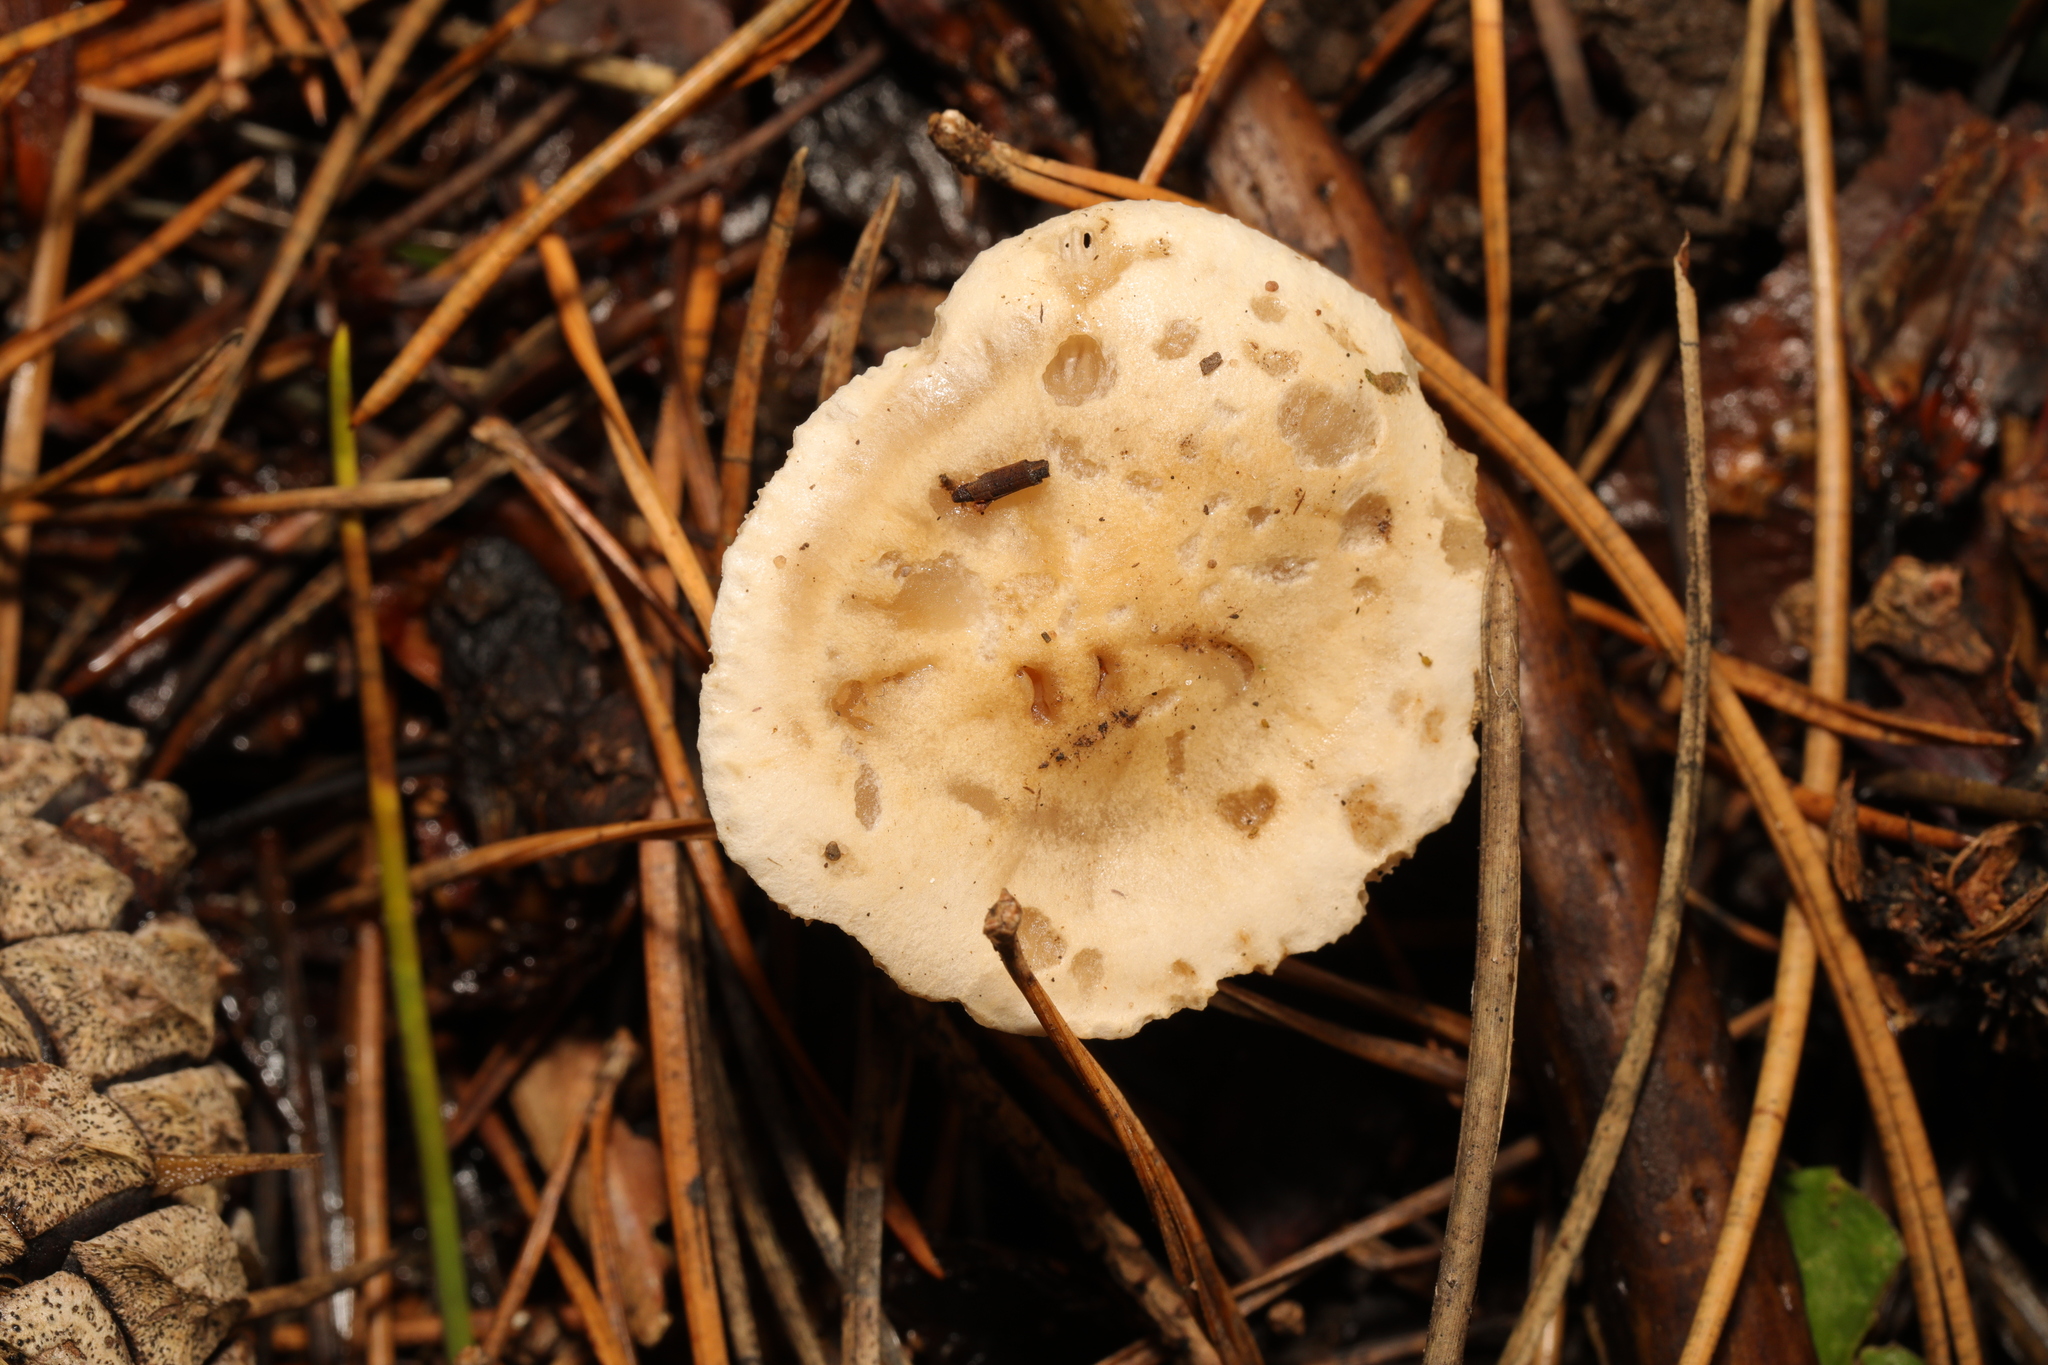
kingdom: Fungi
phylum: Basidiomycota
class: Agaricomycetes
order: Agaricales
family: Hymenogastraceae
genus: Hebeloma
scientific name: Hebeloma
